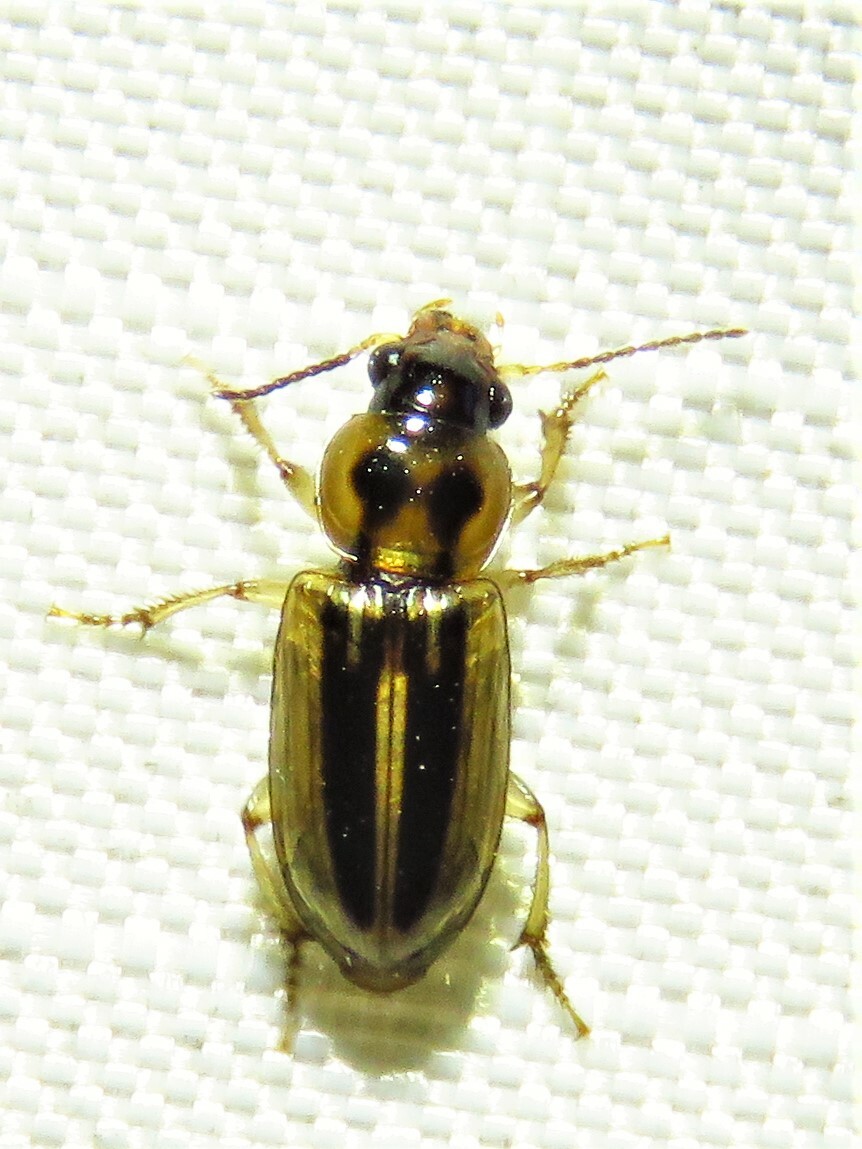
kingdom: Animalia
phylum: Arthropoda
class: Insecta
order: Coleoptera
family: Carabidae
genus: Stenolophus
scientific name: Stenolophus binotatus
